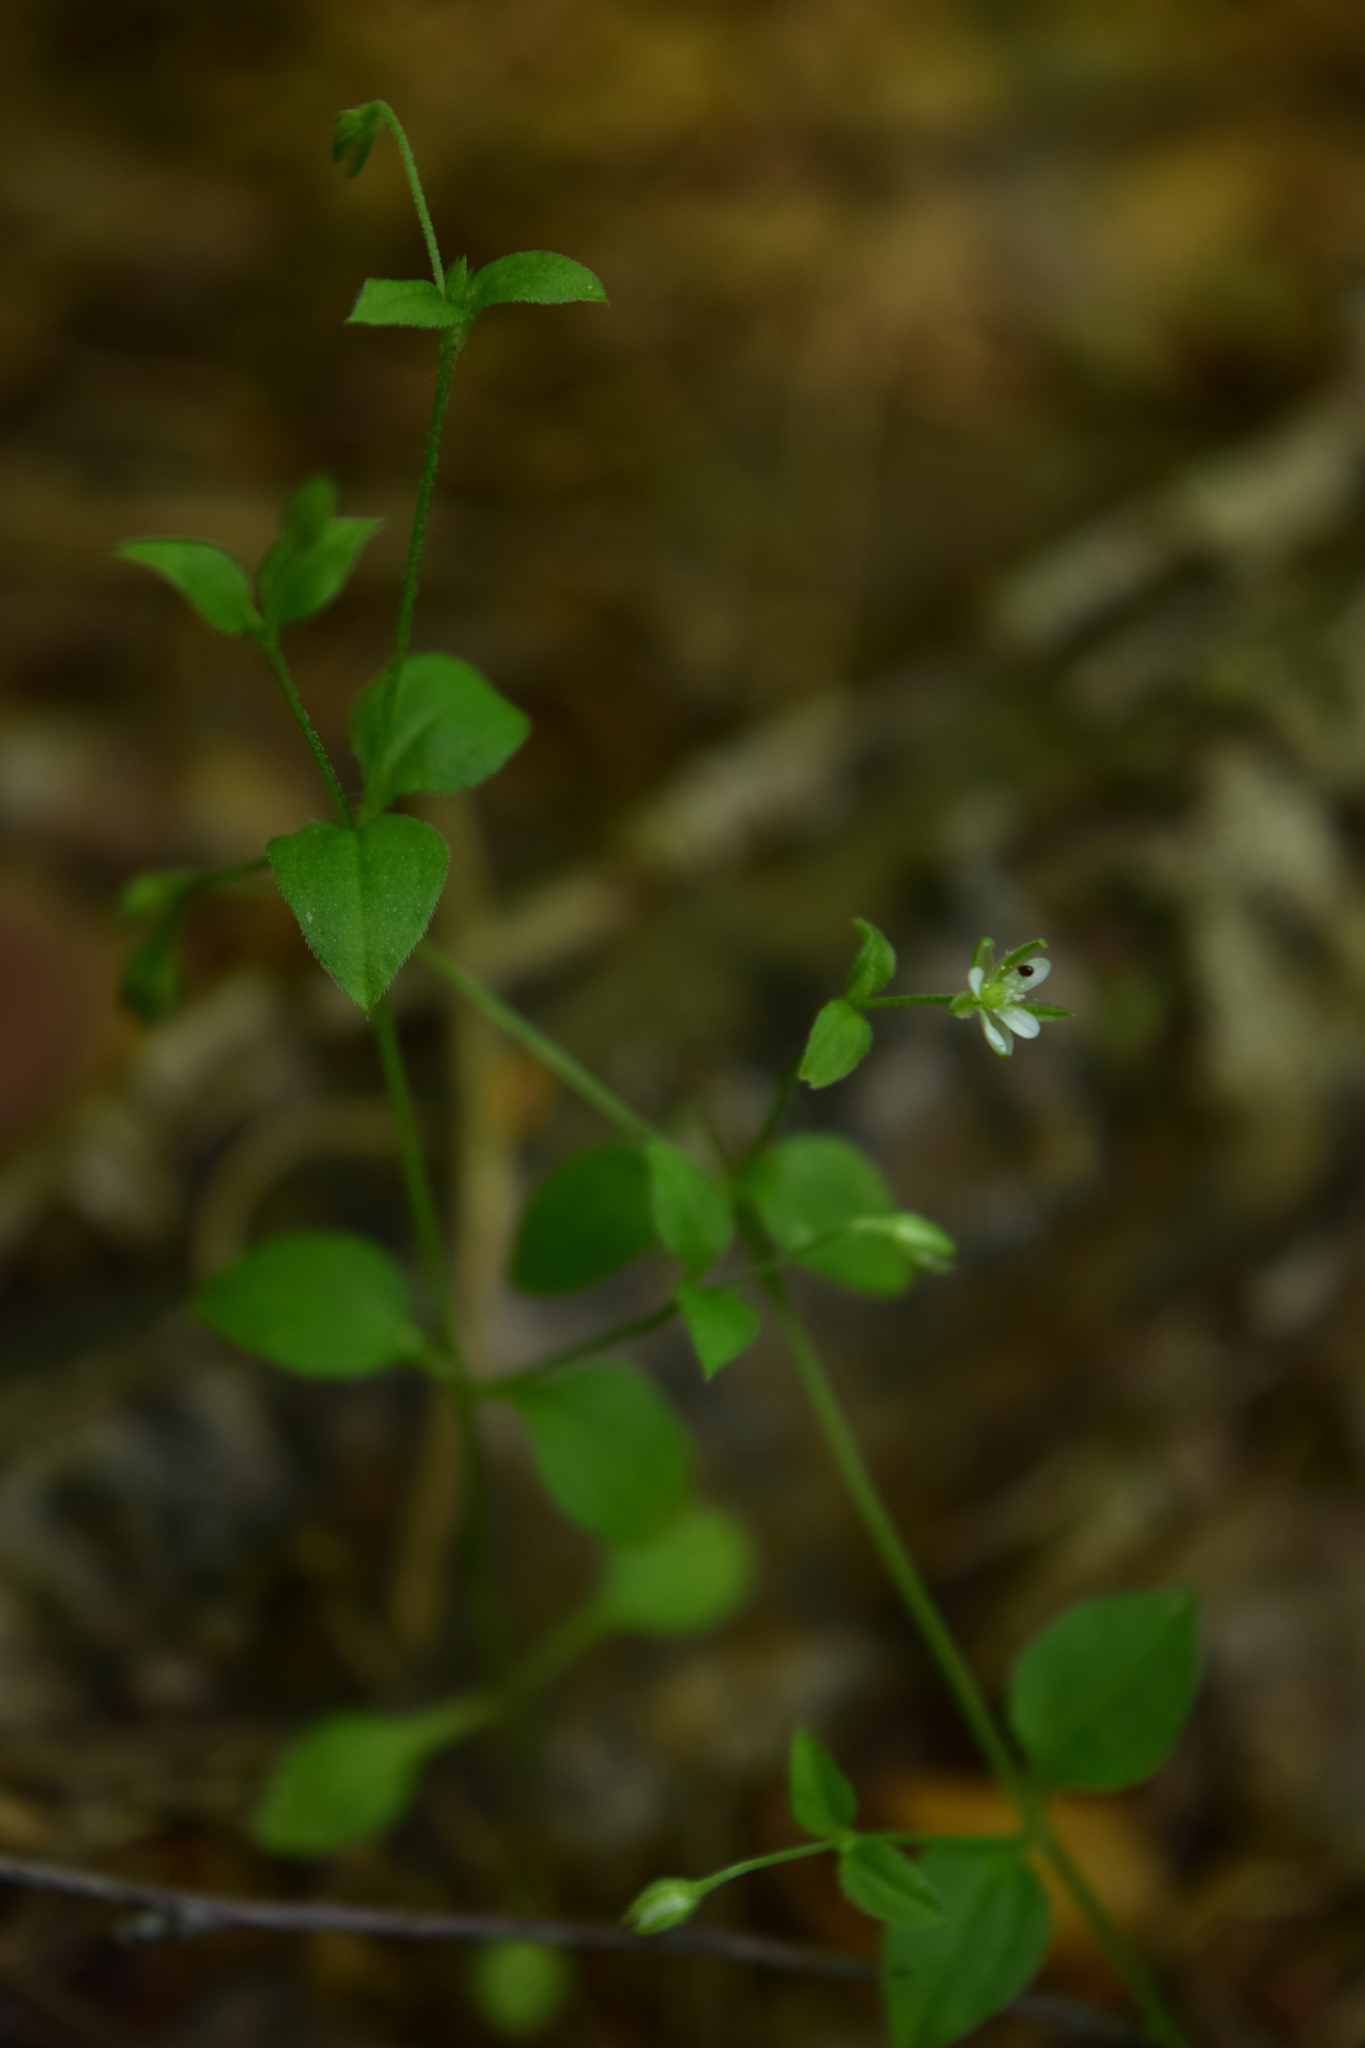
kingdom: Plantae
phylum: Tracheophyta
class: Magnoliopsida
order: Caryophyllales
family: Caryophyllaceae
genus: Moehringia
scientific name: Moehringia trinervia
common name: Three-nerved sandwort
